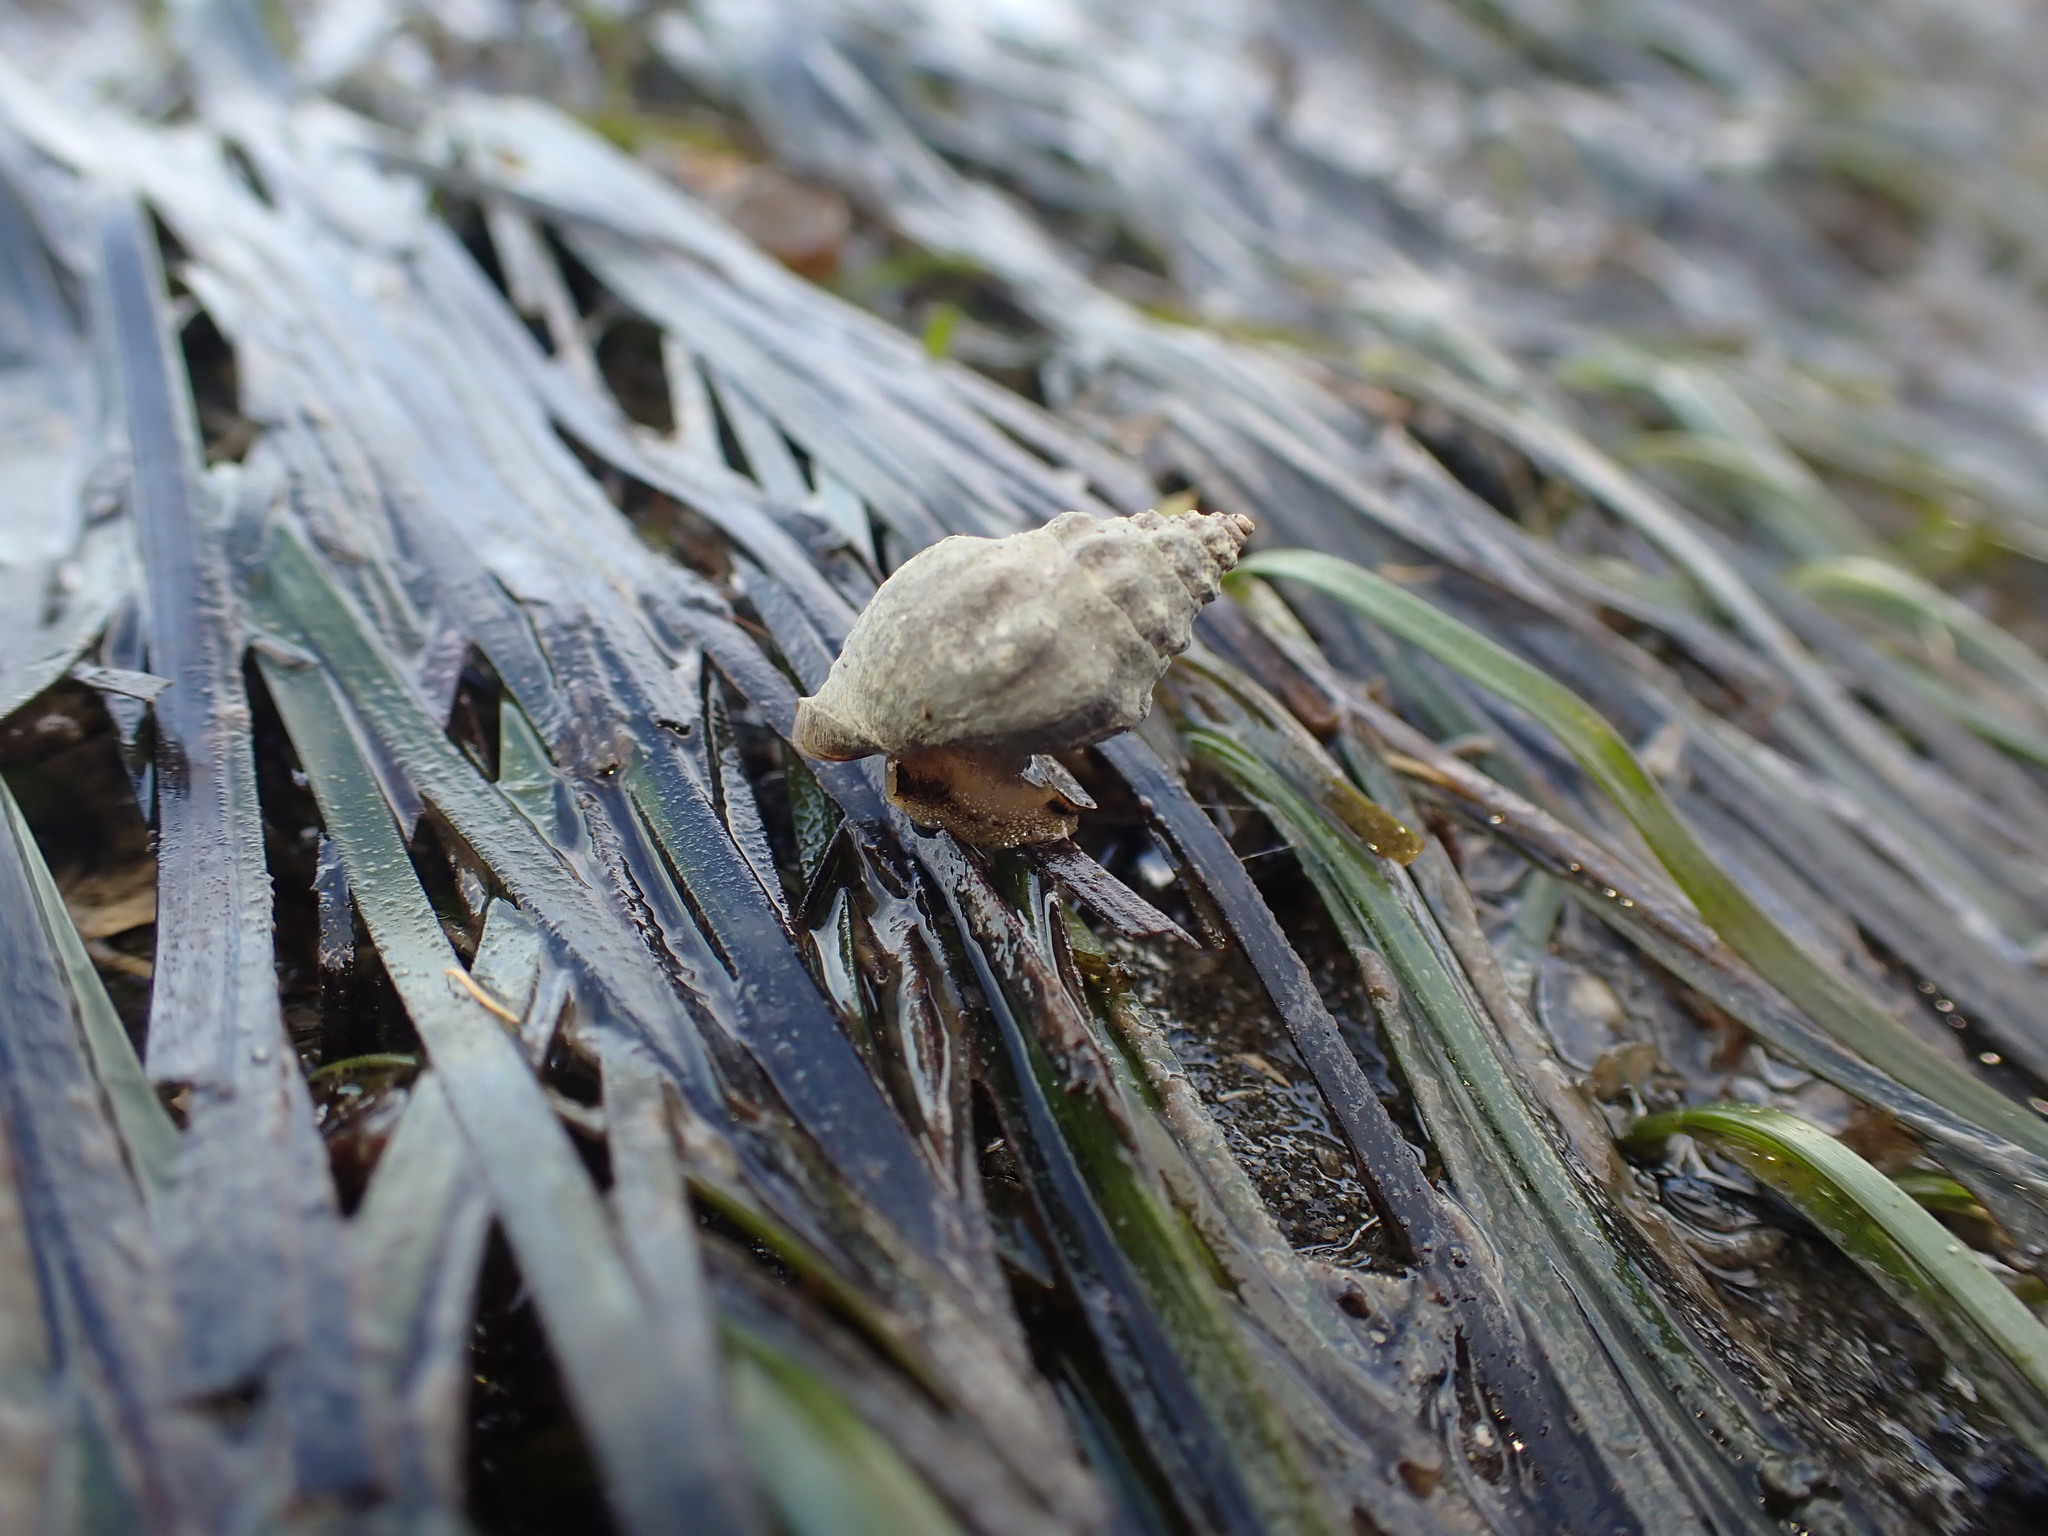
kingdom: Animalia
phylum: Mollusca
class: Gastropoda
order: Neogastropoda
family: Cominellidae
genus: Cominella
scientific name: Cominella glandiformis
